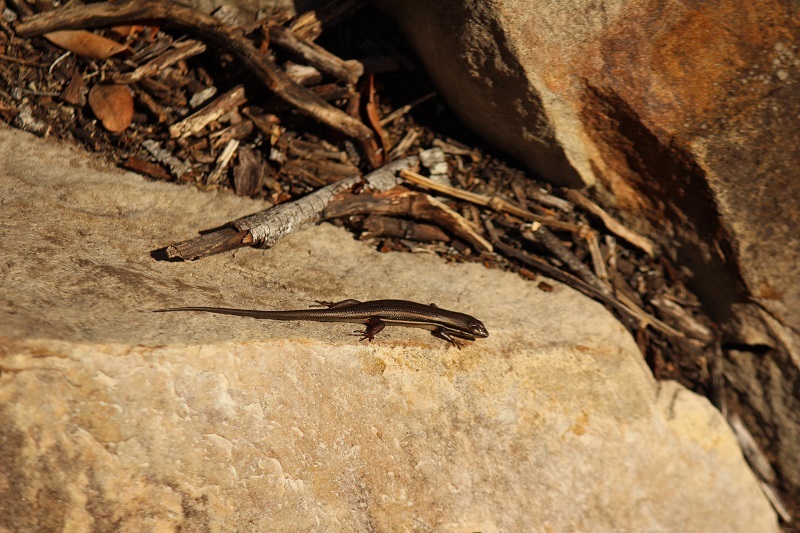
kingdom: Animalia
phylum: Chordata
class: Squamata
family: Scincidae
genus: Trachylepis
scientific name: Trachylepis homalocephala
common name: Red-sided skink
